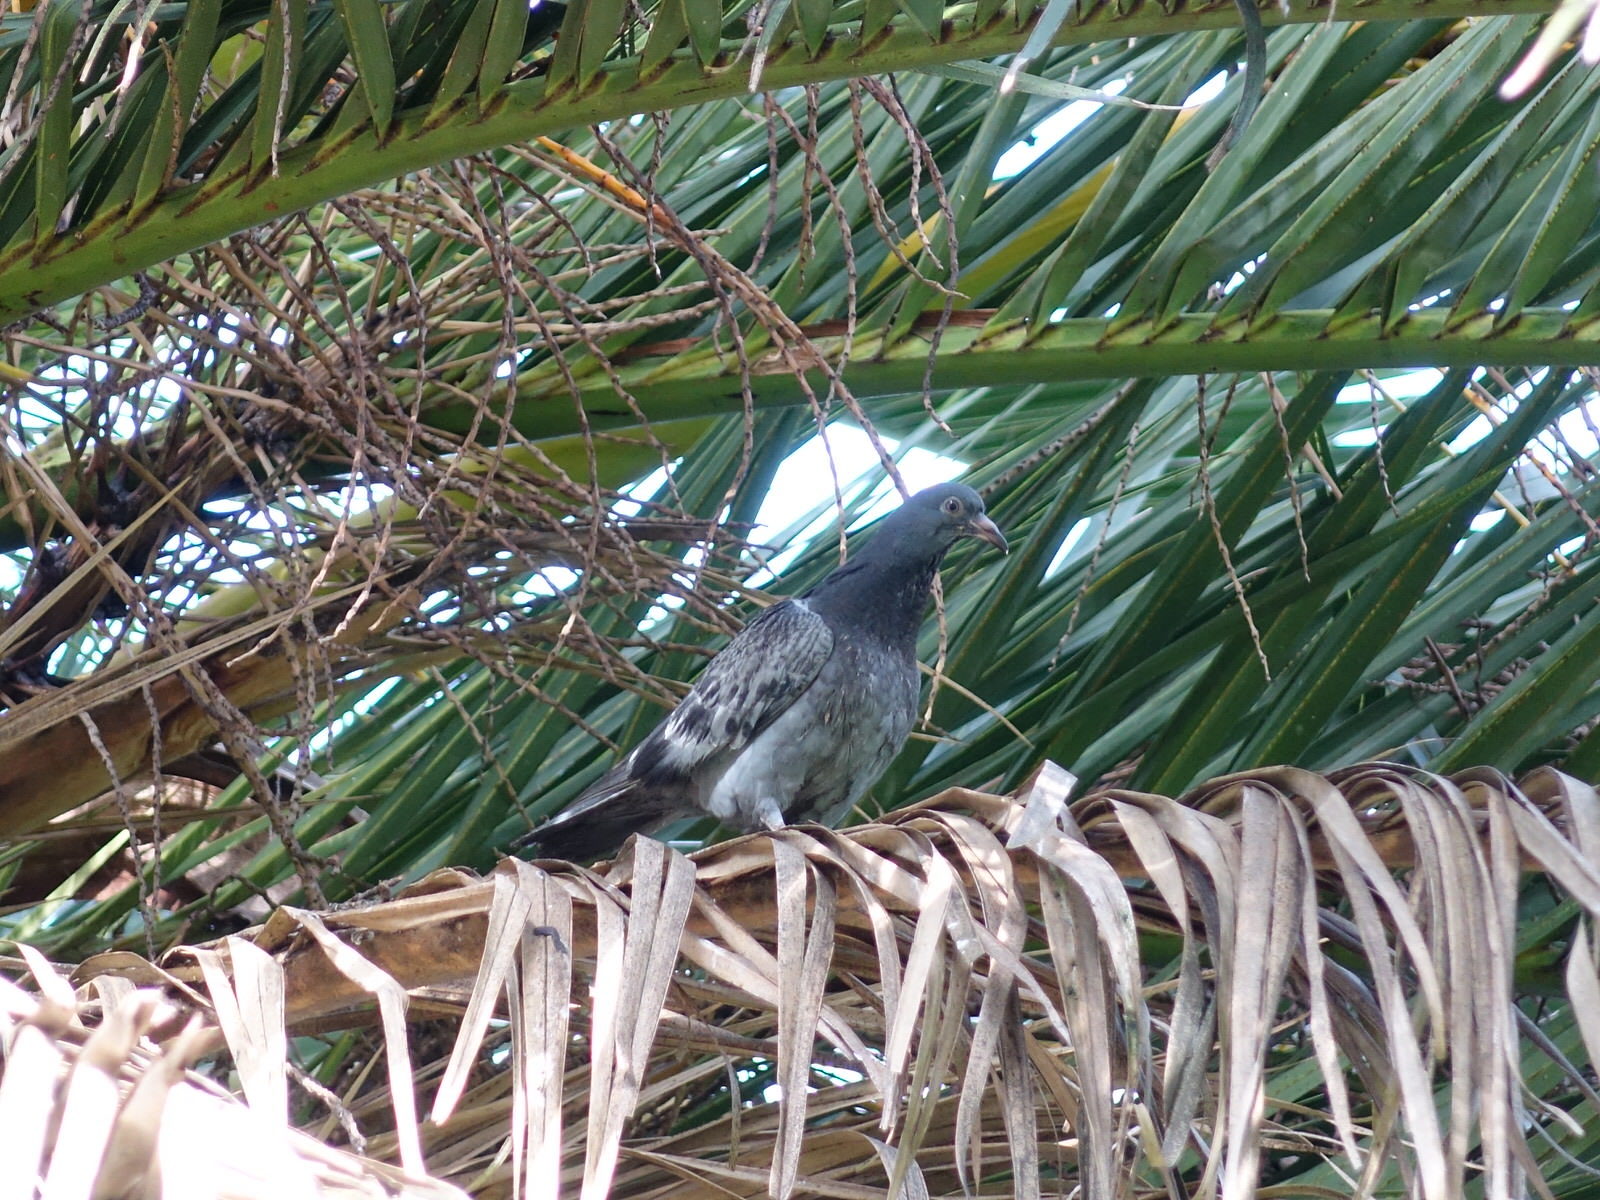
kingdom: Animalia
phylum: Chordata
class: Aves
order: Columbiformes
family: Columbidae
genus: Columba
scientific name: Columba livia
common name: Rock pigeon
